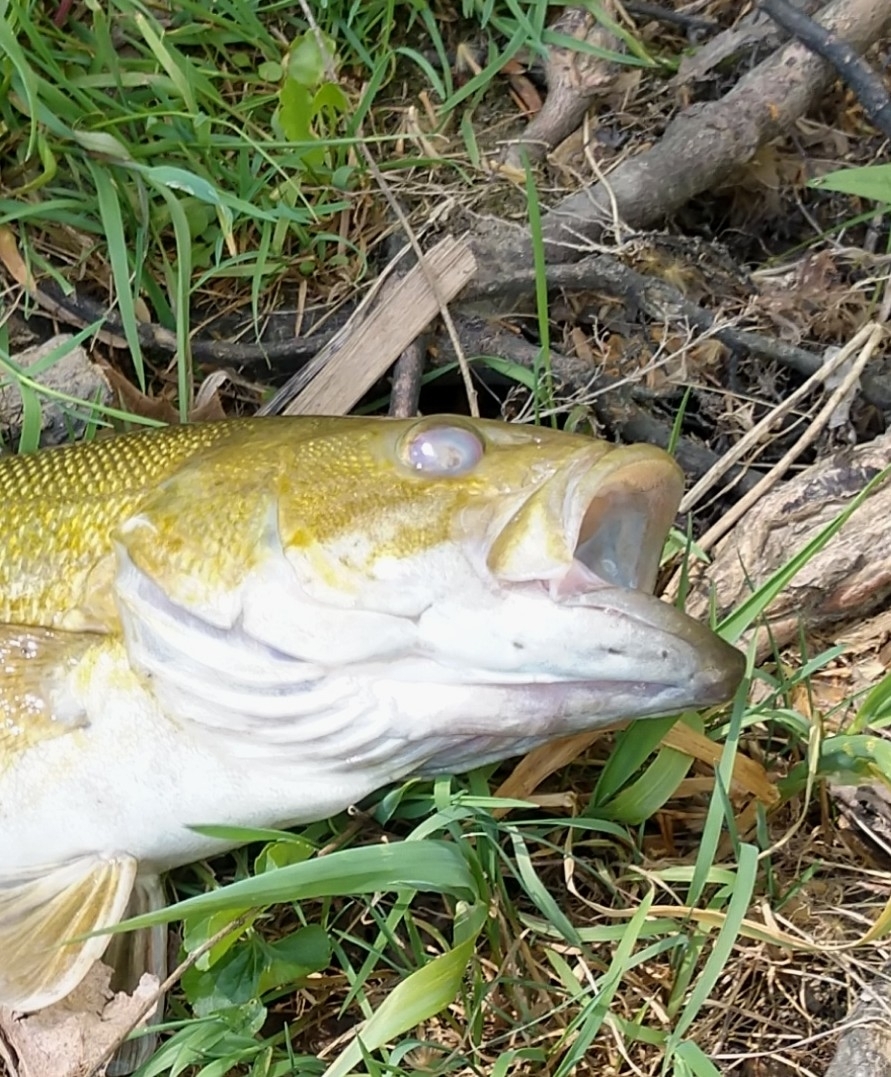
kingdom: Animalia
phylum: Chordata
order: Perciformes
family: Centrarchidae
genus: Micropterus
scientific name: Micropterus dolomieu
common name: Smallmouth bass
